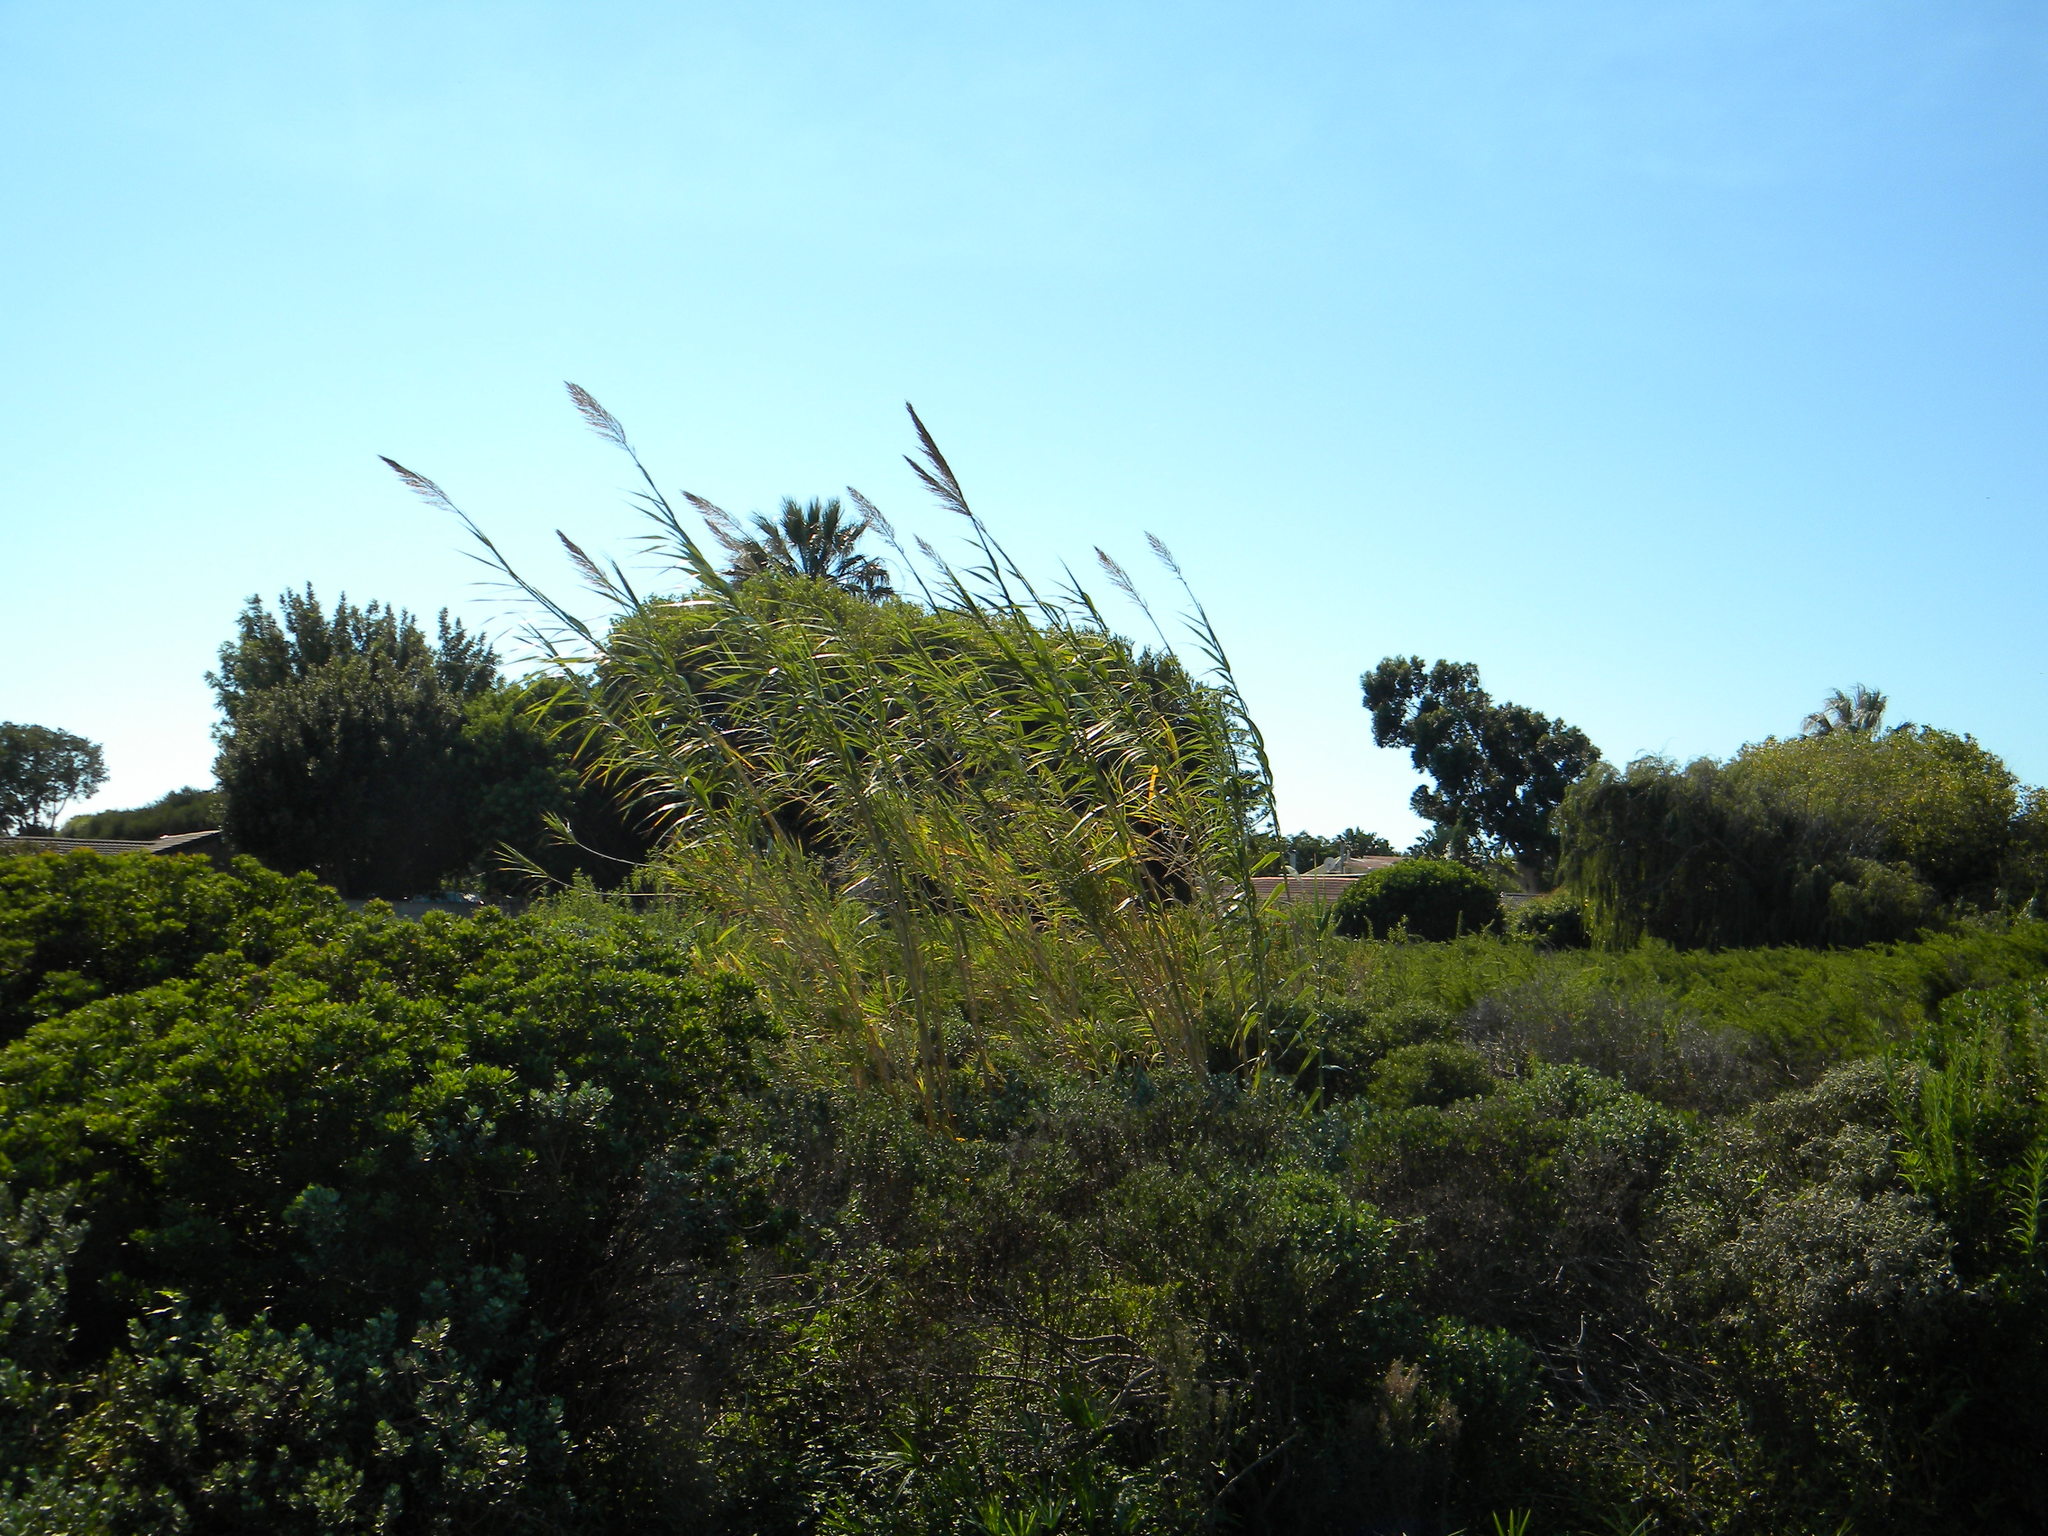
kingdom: Plantae
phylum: Tracheophyta
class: Liliopsida
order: Poales
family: Poaceae
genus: Arundo
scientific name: Arundo donax
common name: Giant reed
